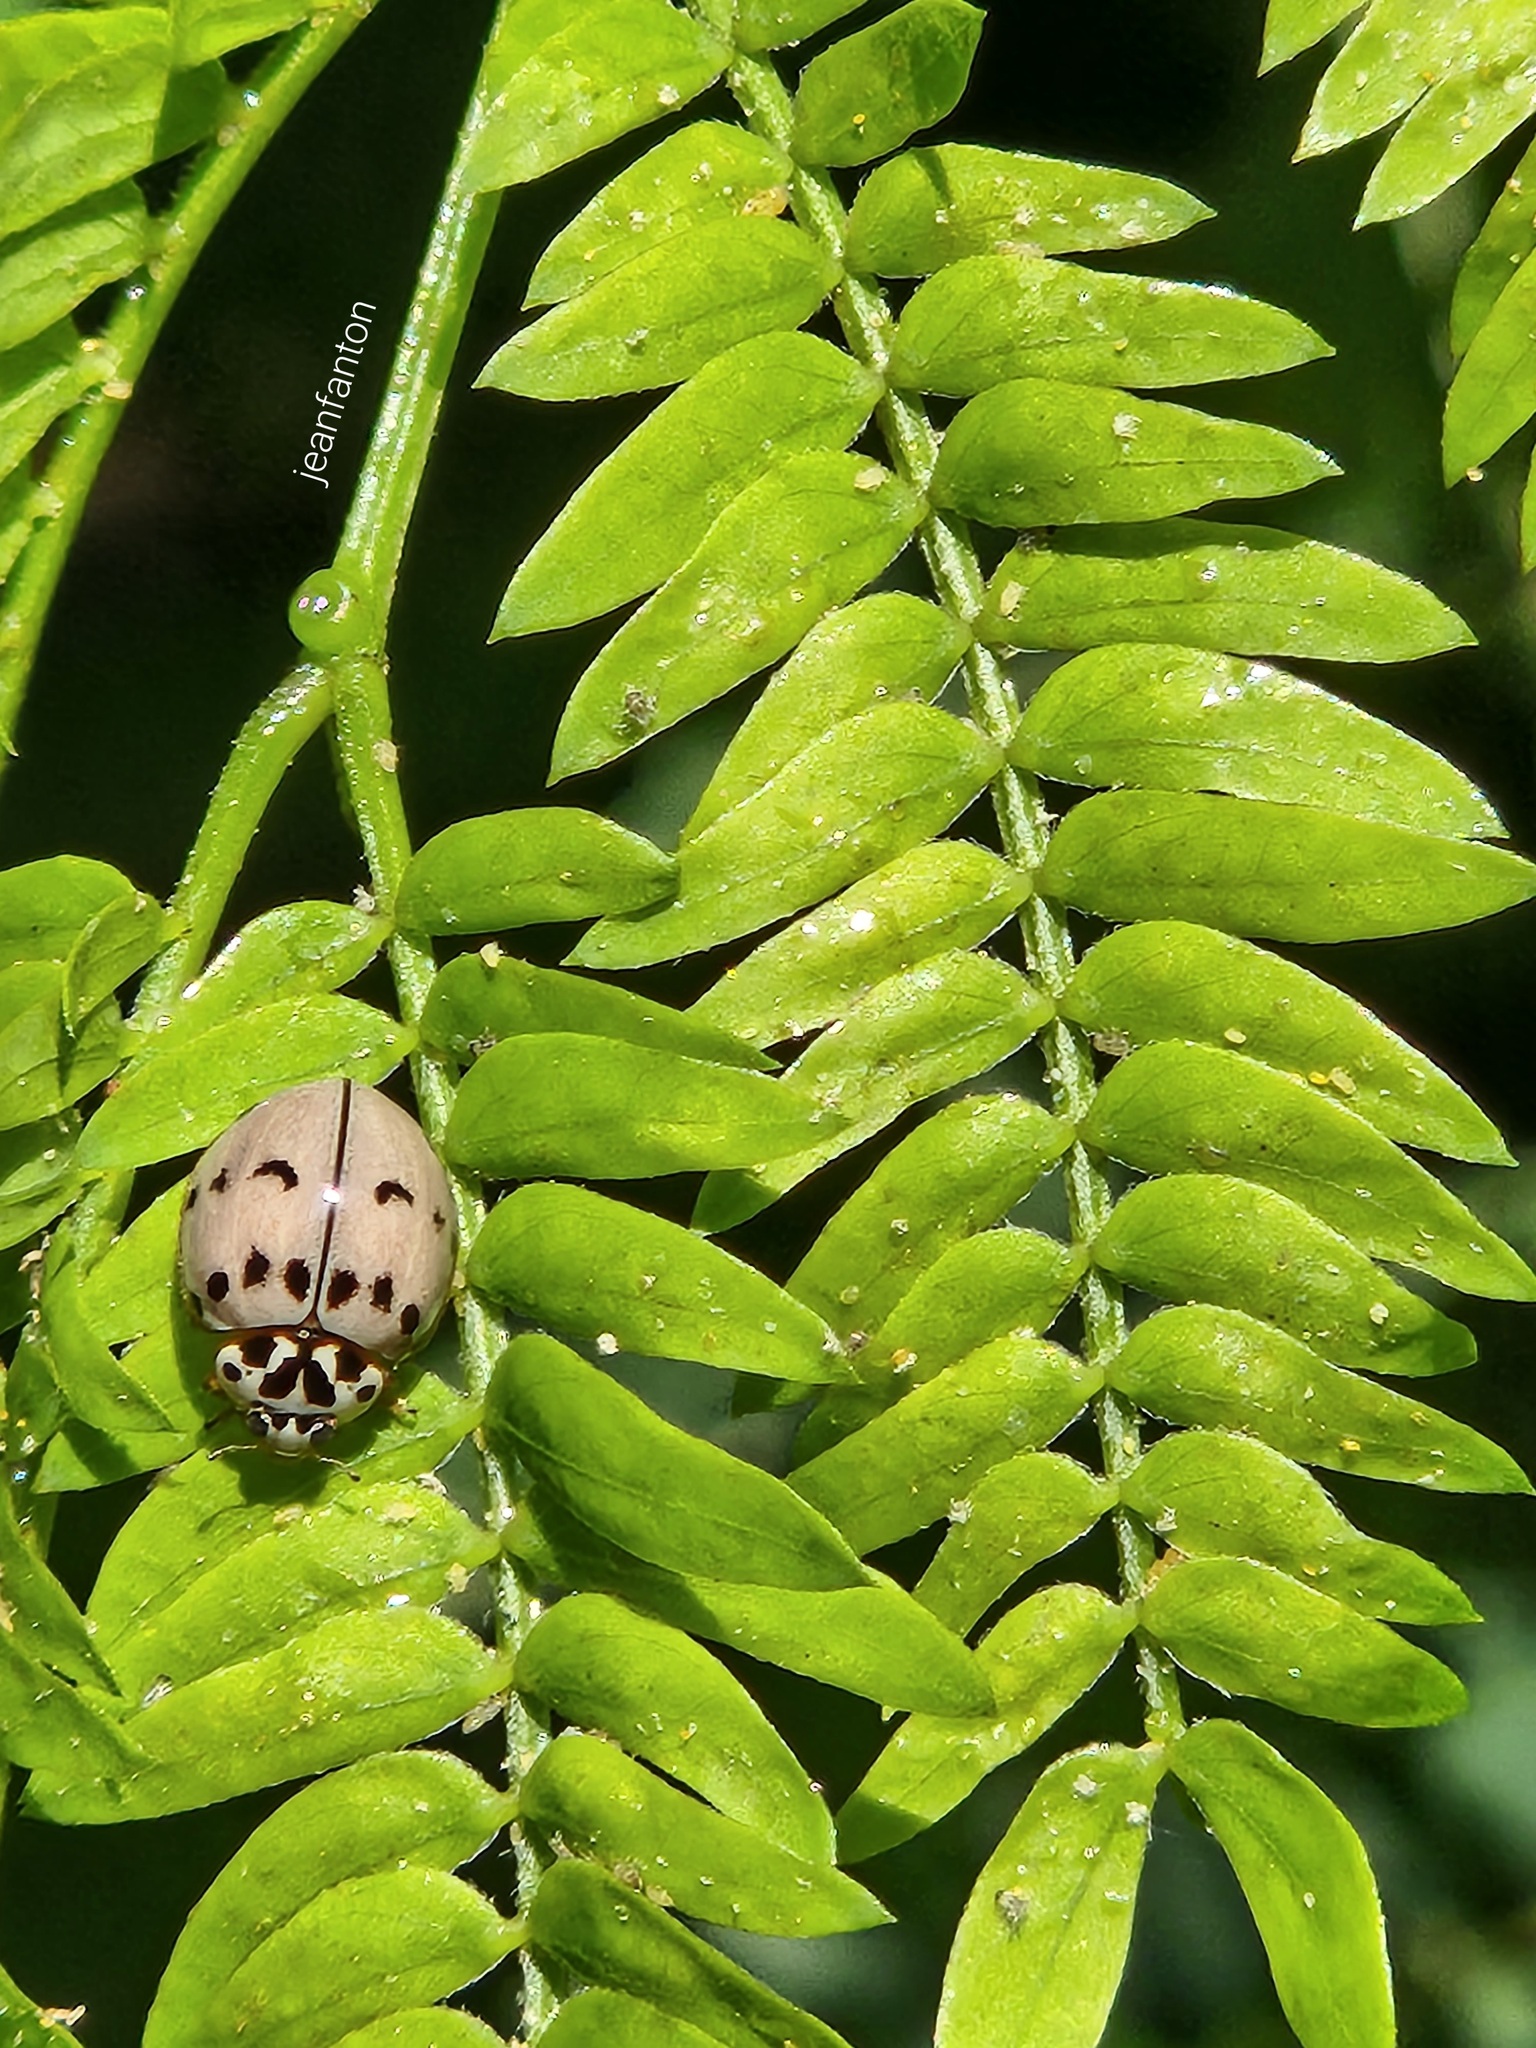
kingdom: Animalia
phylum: Arthropoda
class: Insecta
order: Coleoptera
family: Coccinellidae
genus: Olla
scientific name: Olla v-nigrum
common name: Ashy gray lady beetle
